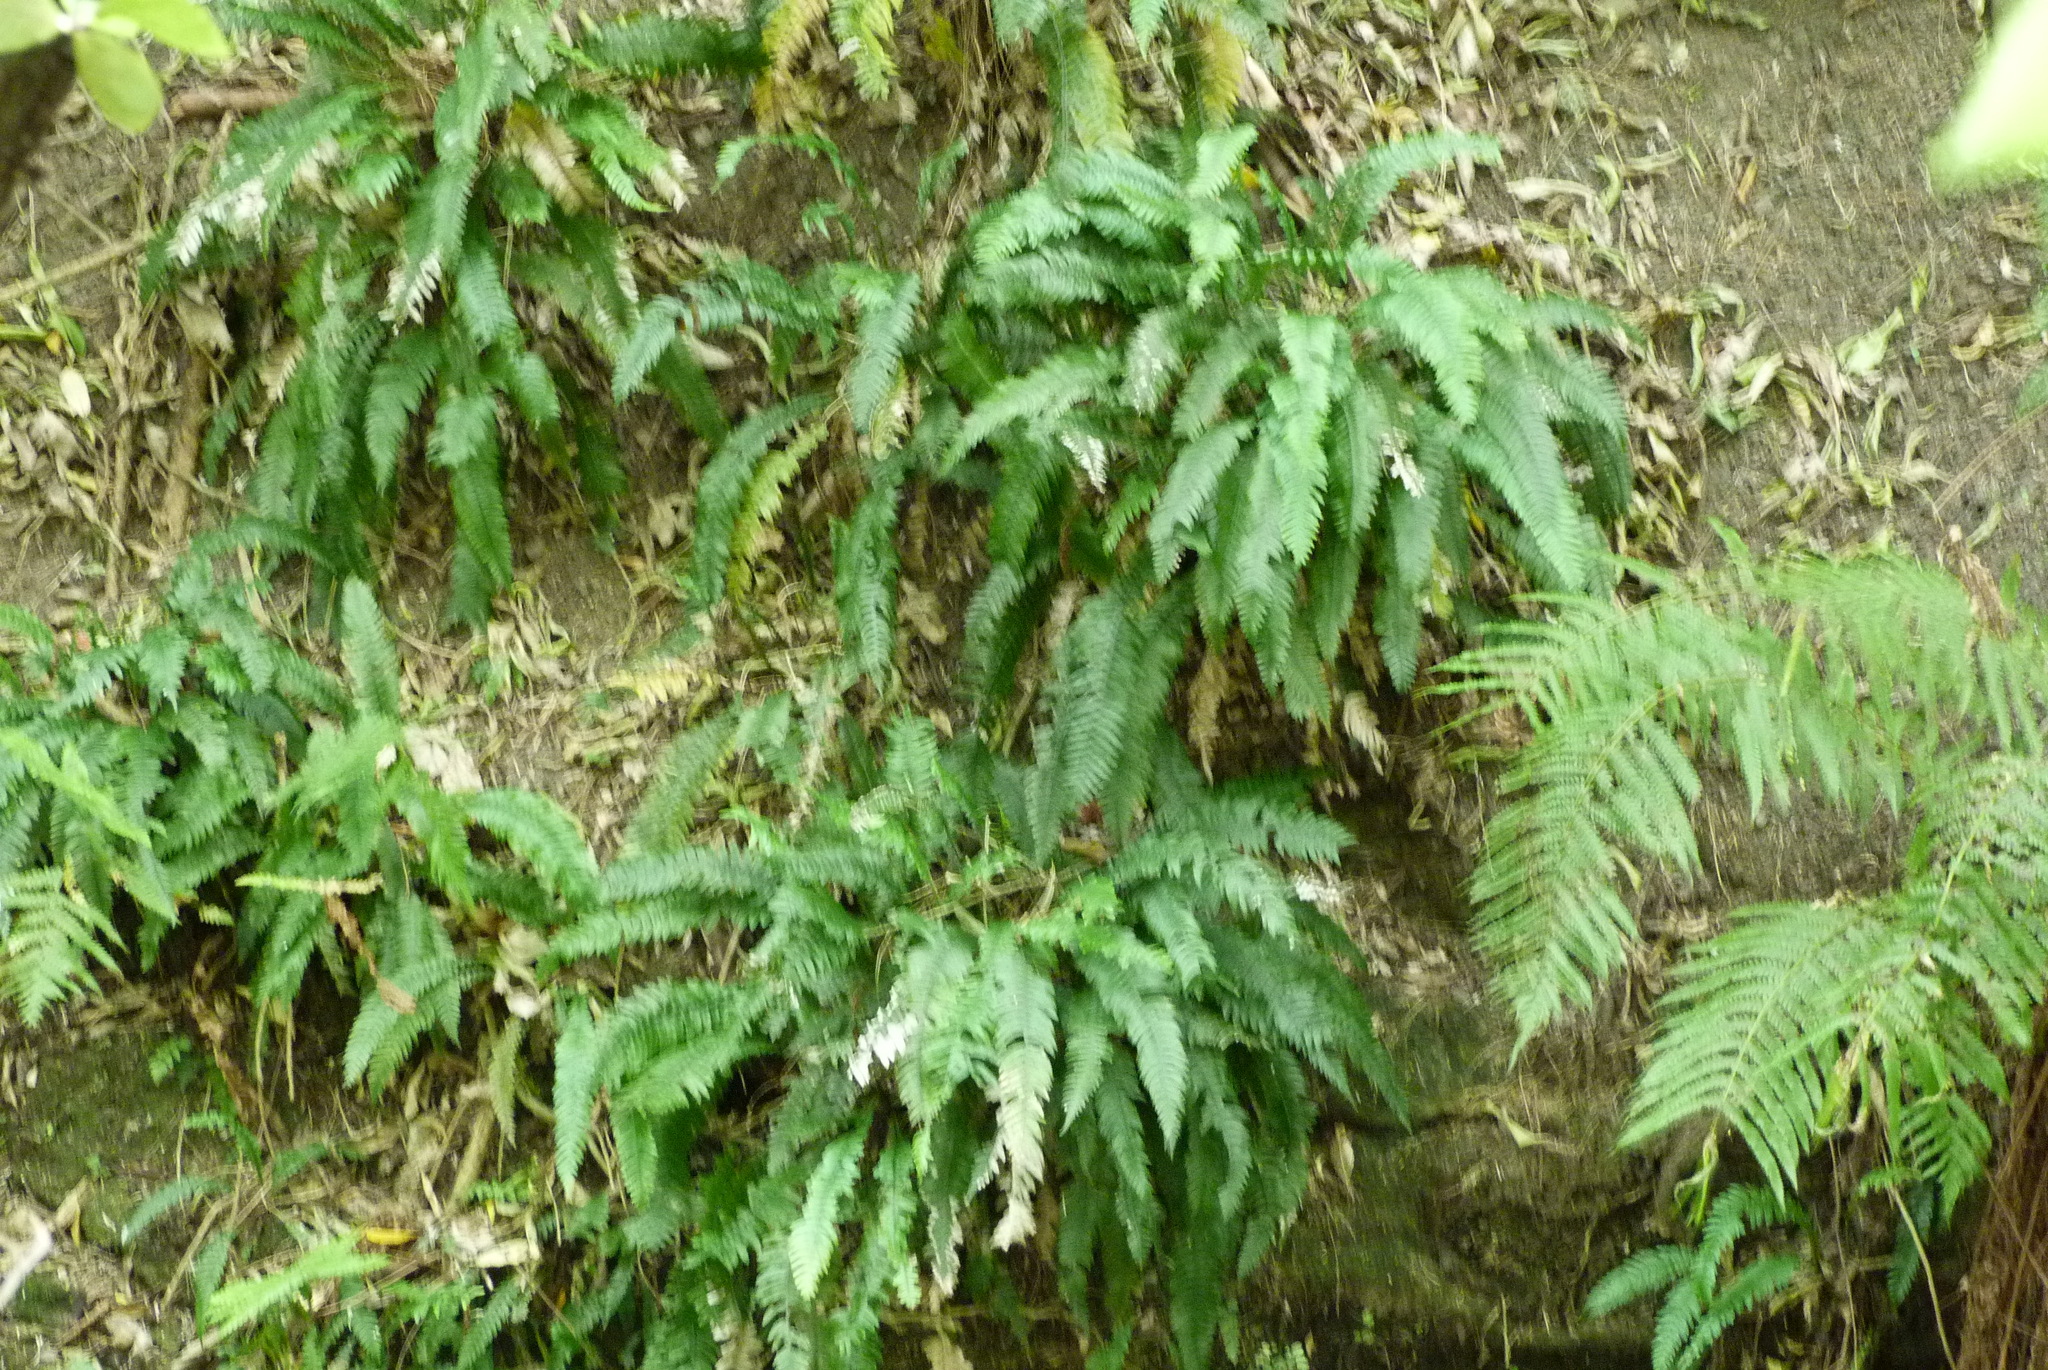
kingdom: Plantae
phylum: Tracheophyta
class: Polypodiopsida
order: Polypodiales
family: Blechnaceae
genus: Austroblechnum
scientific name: Austroblechnum lanceolatum
